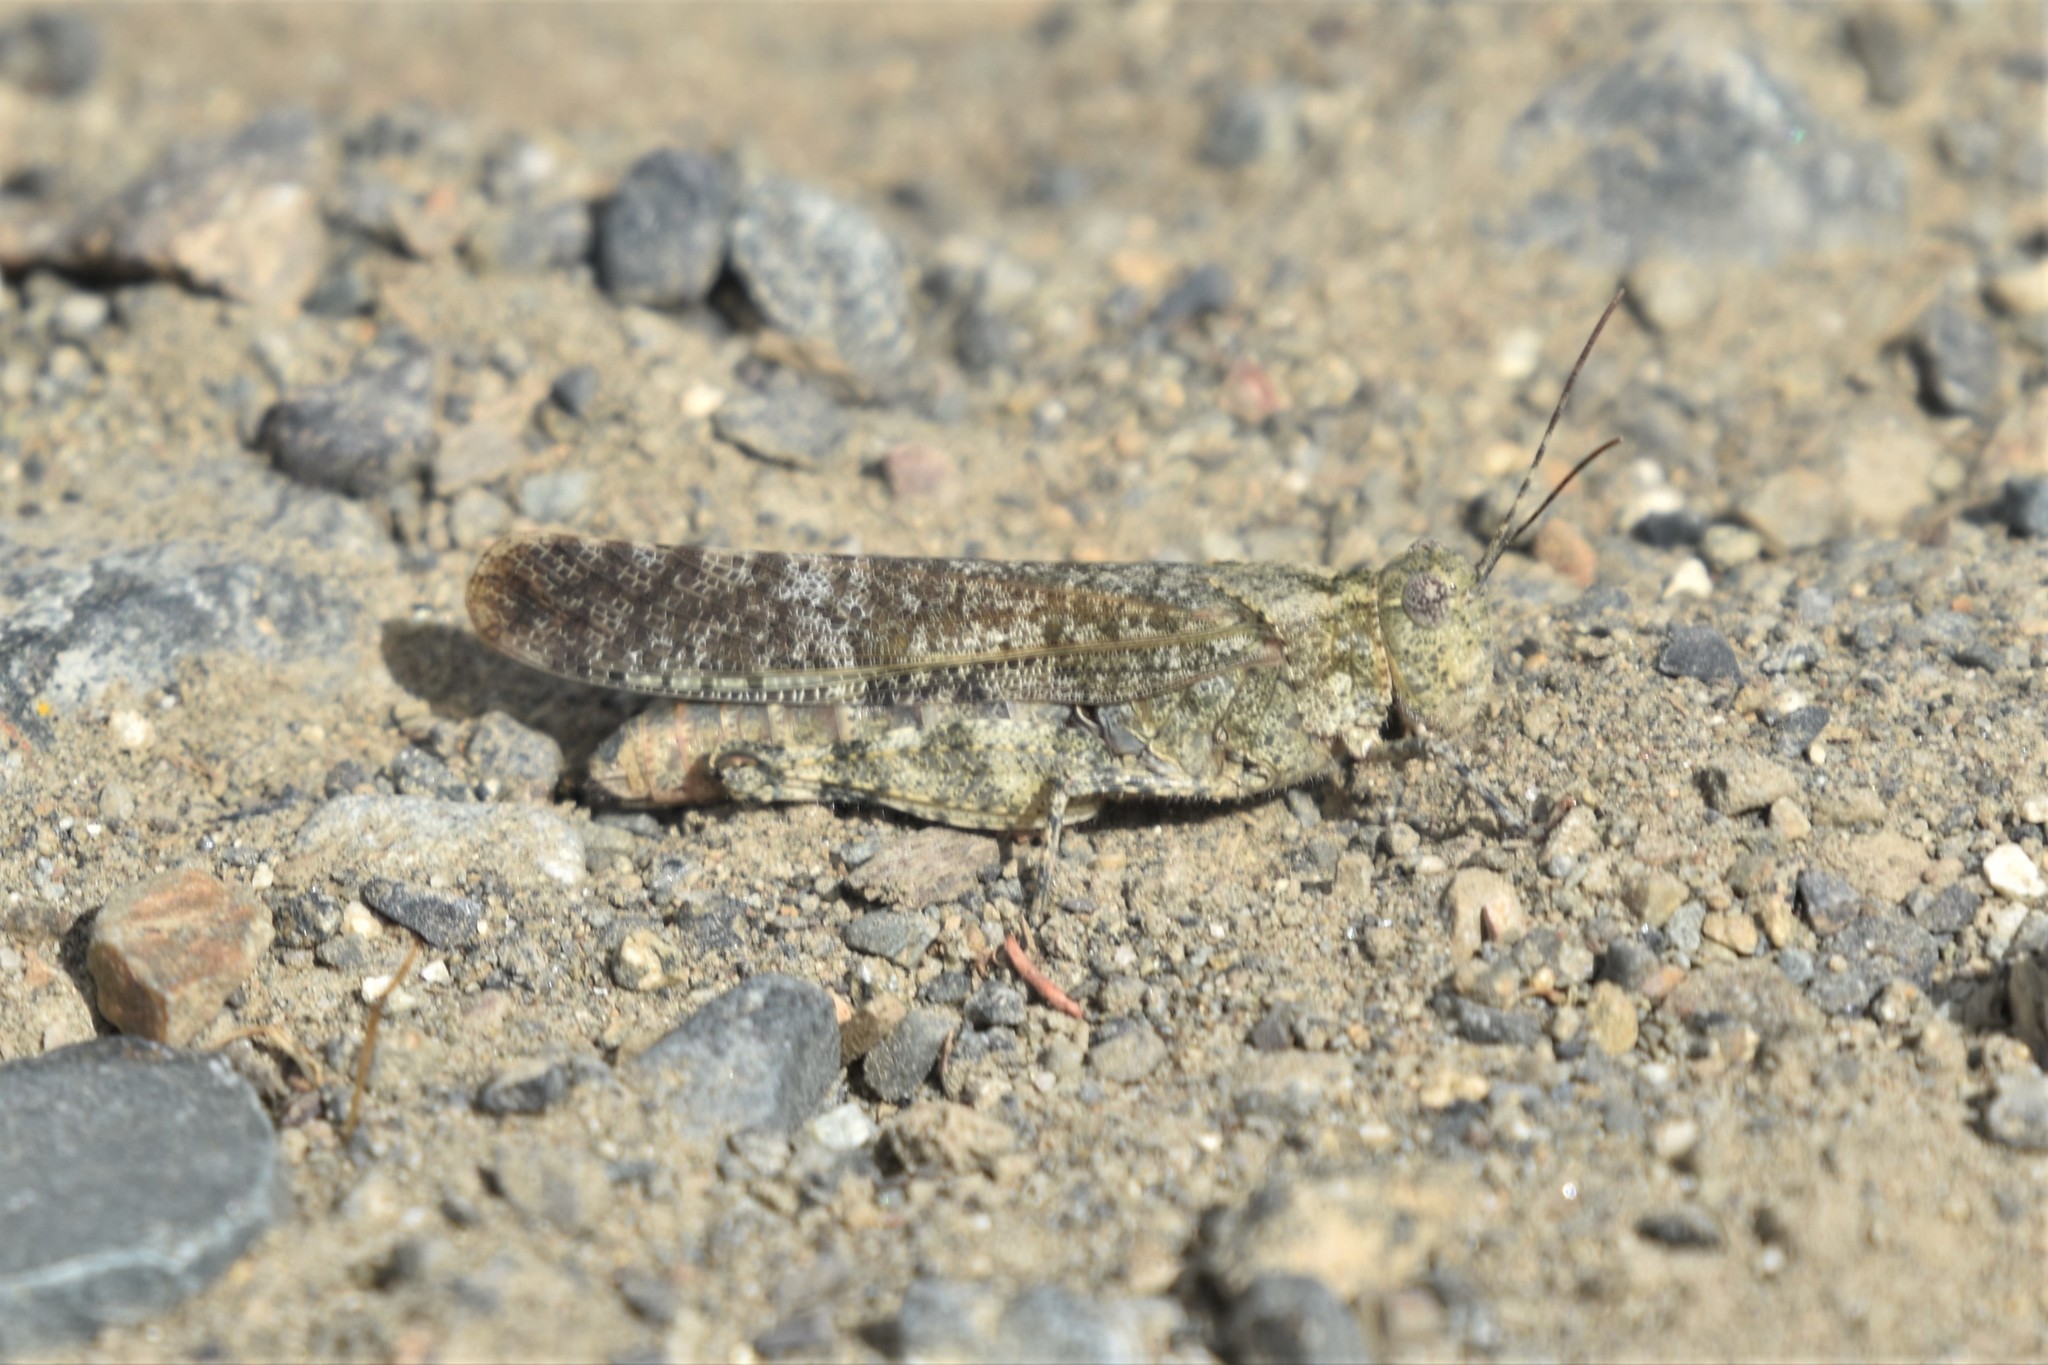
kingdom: Animalia
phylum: Arthropoda
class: Insecta
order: Orthoptera
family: Acrididae
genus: Trimerotropis
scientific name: Trimerotropis verruculata
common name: Crackling forest grasshopper
